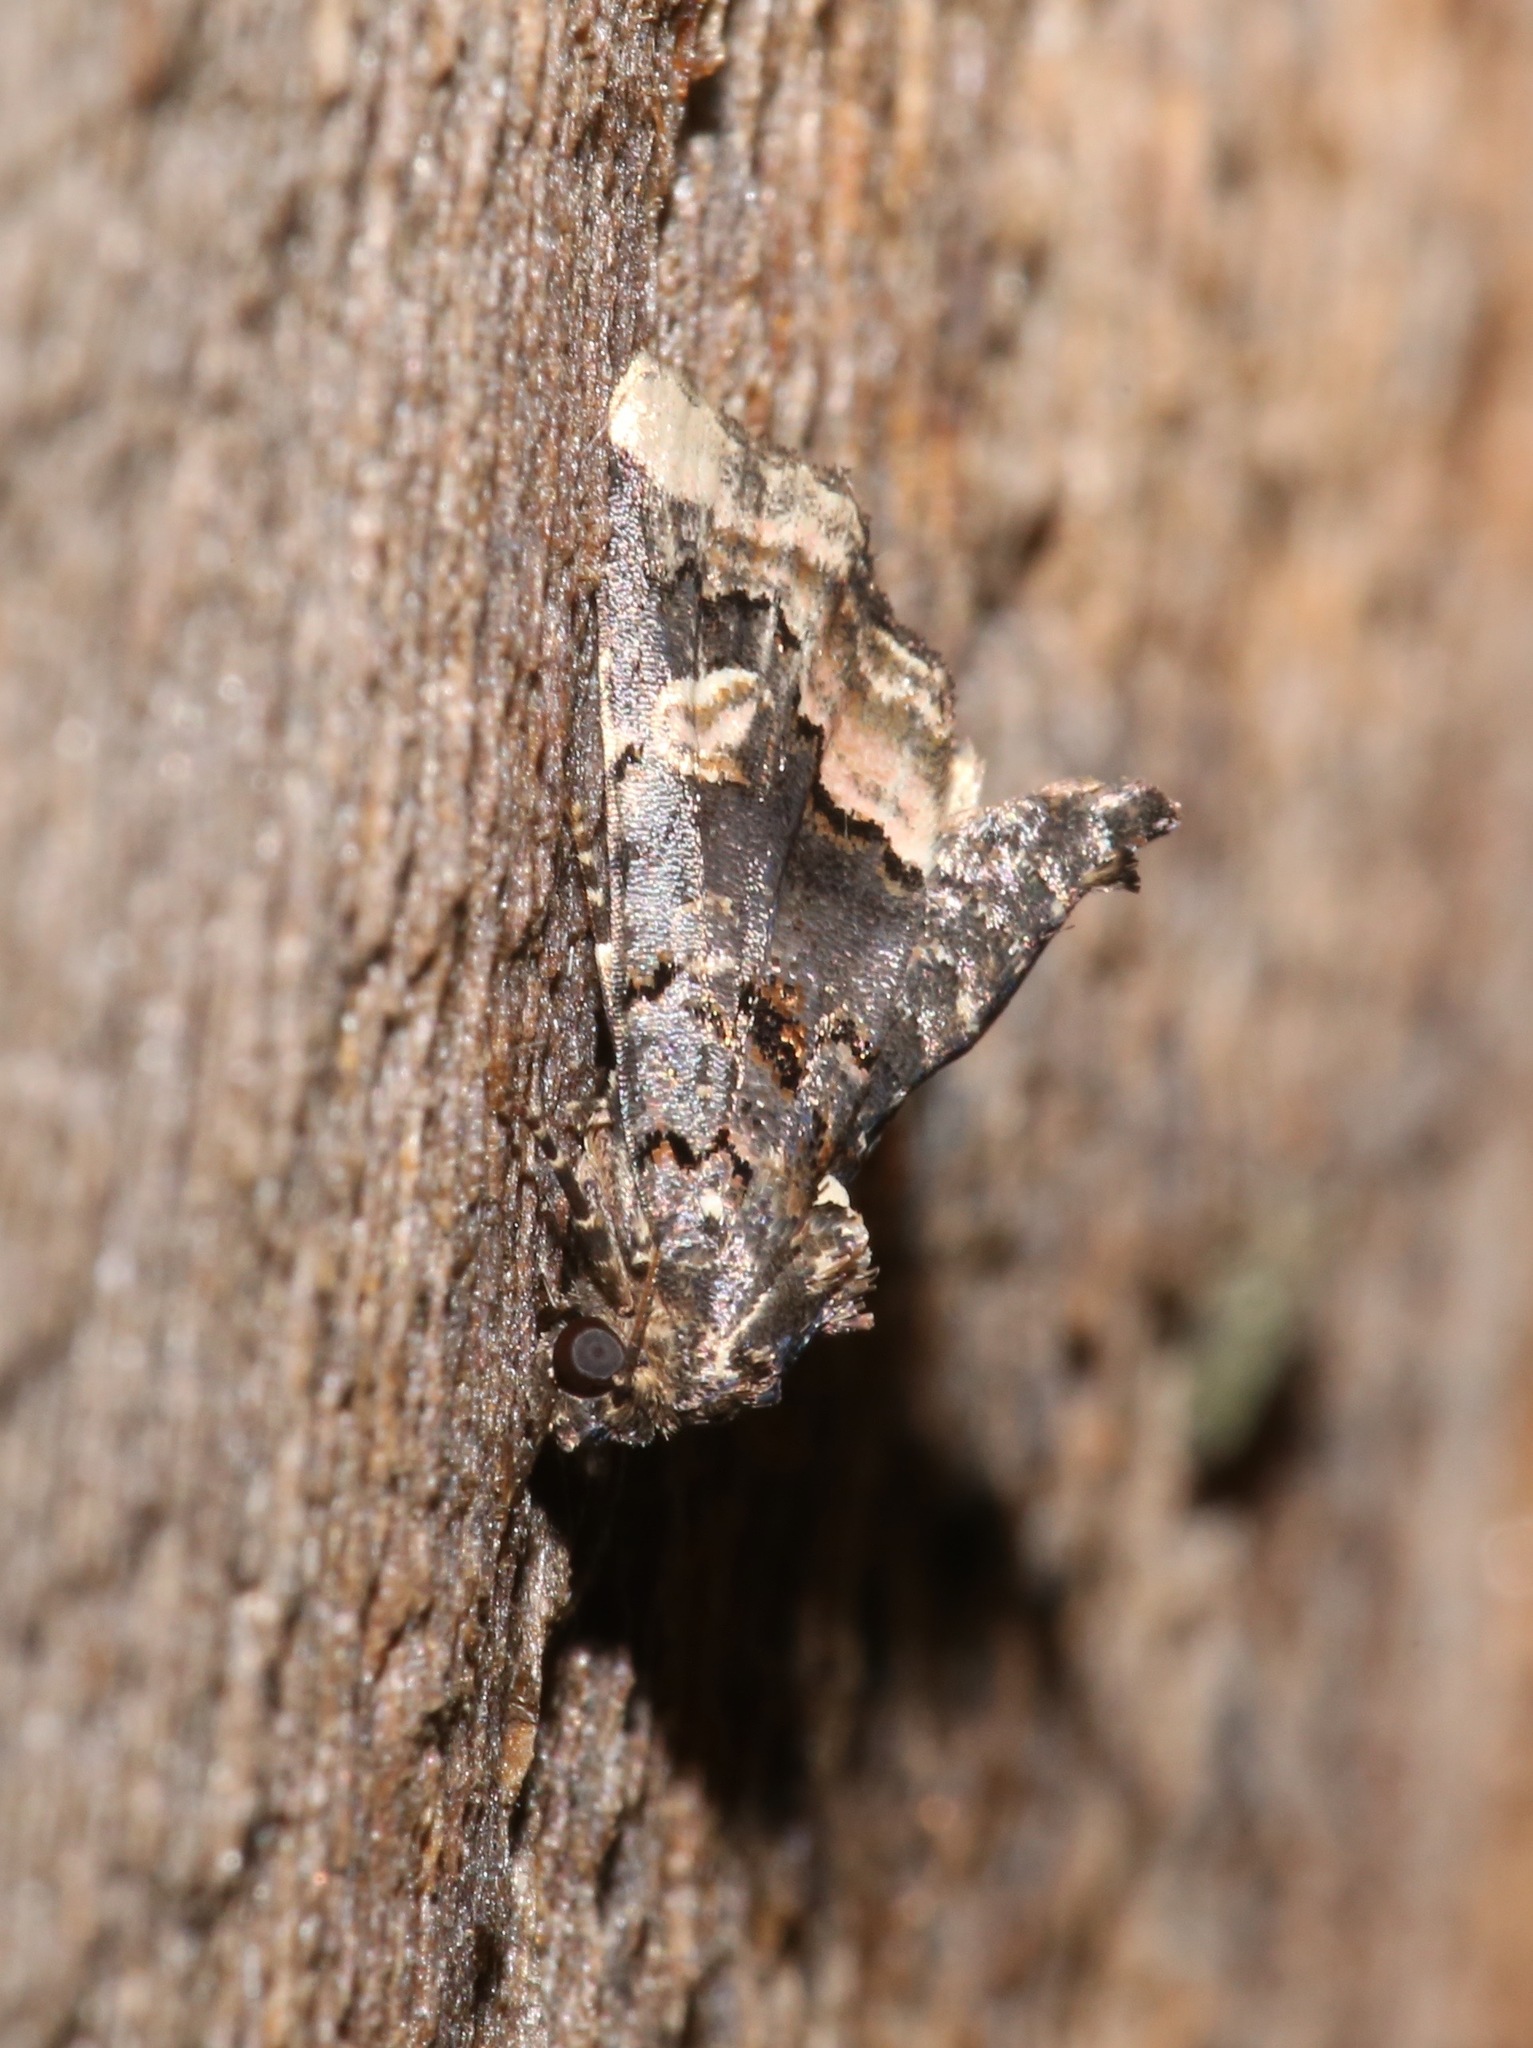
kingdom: Animalia
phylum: Arthropoda
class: Insecta
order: Lepidoptera
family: Noctuidae
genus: Homophoberia
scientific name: Homophoberia apicosa
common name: Black wedge-spot
